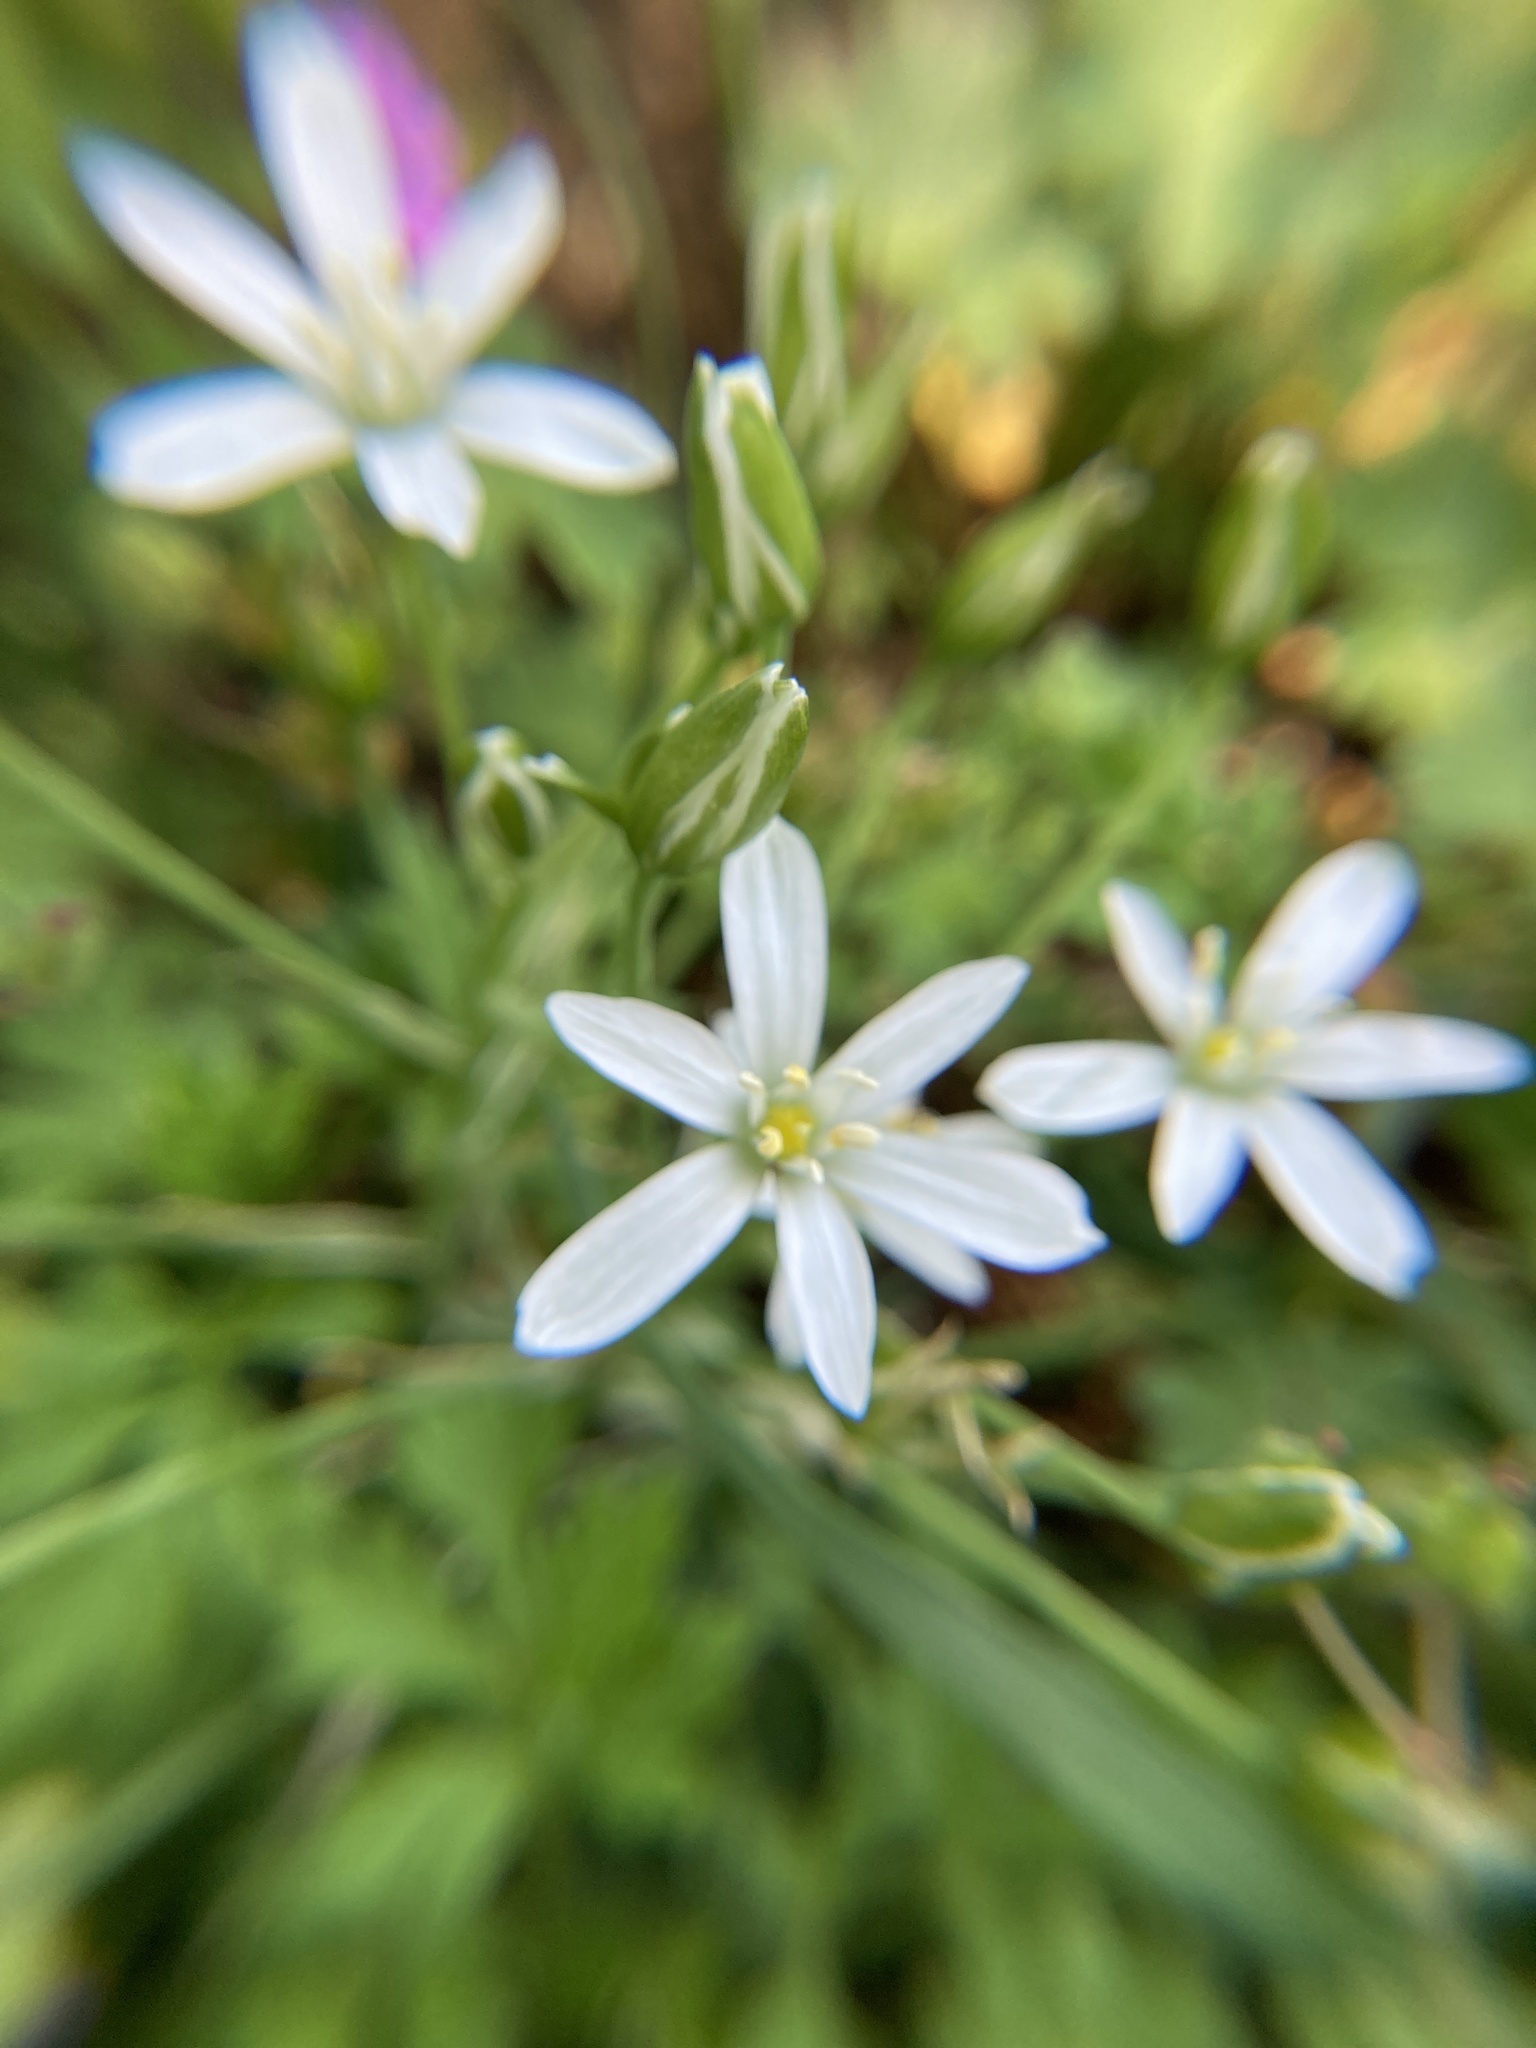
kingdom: Plantae
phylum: Tracheophyta
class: Liliopsida
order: Asparagales
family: Asparagaceae
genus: Ornithogalum
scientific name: Ornithogalum divergens
